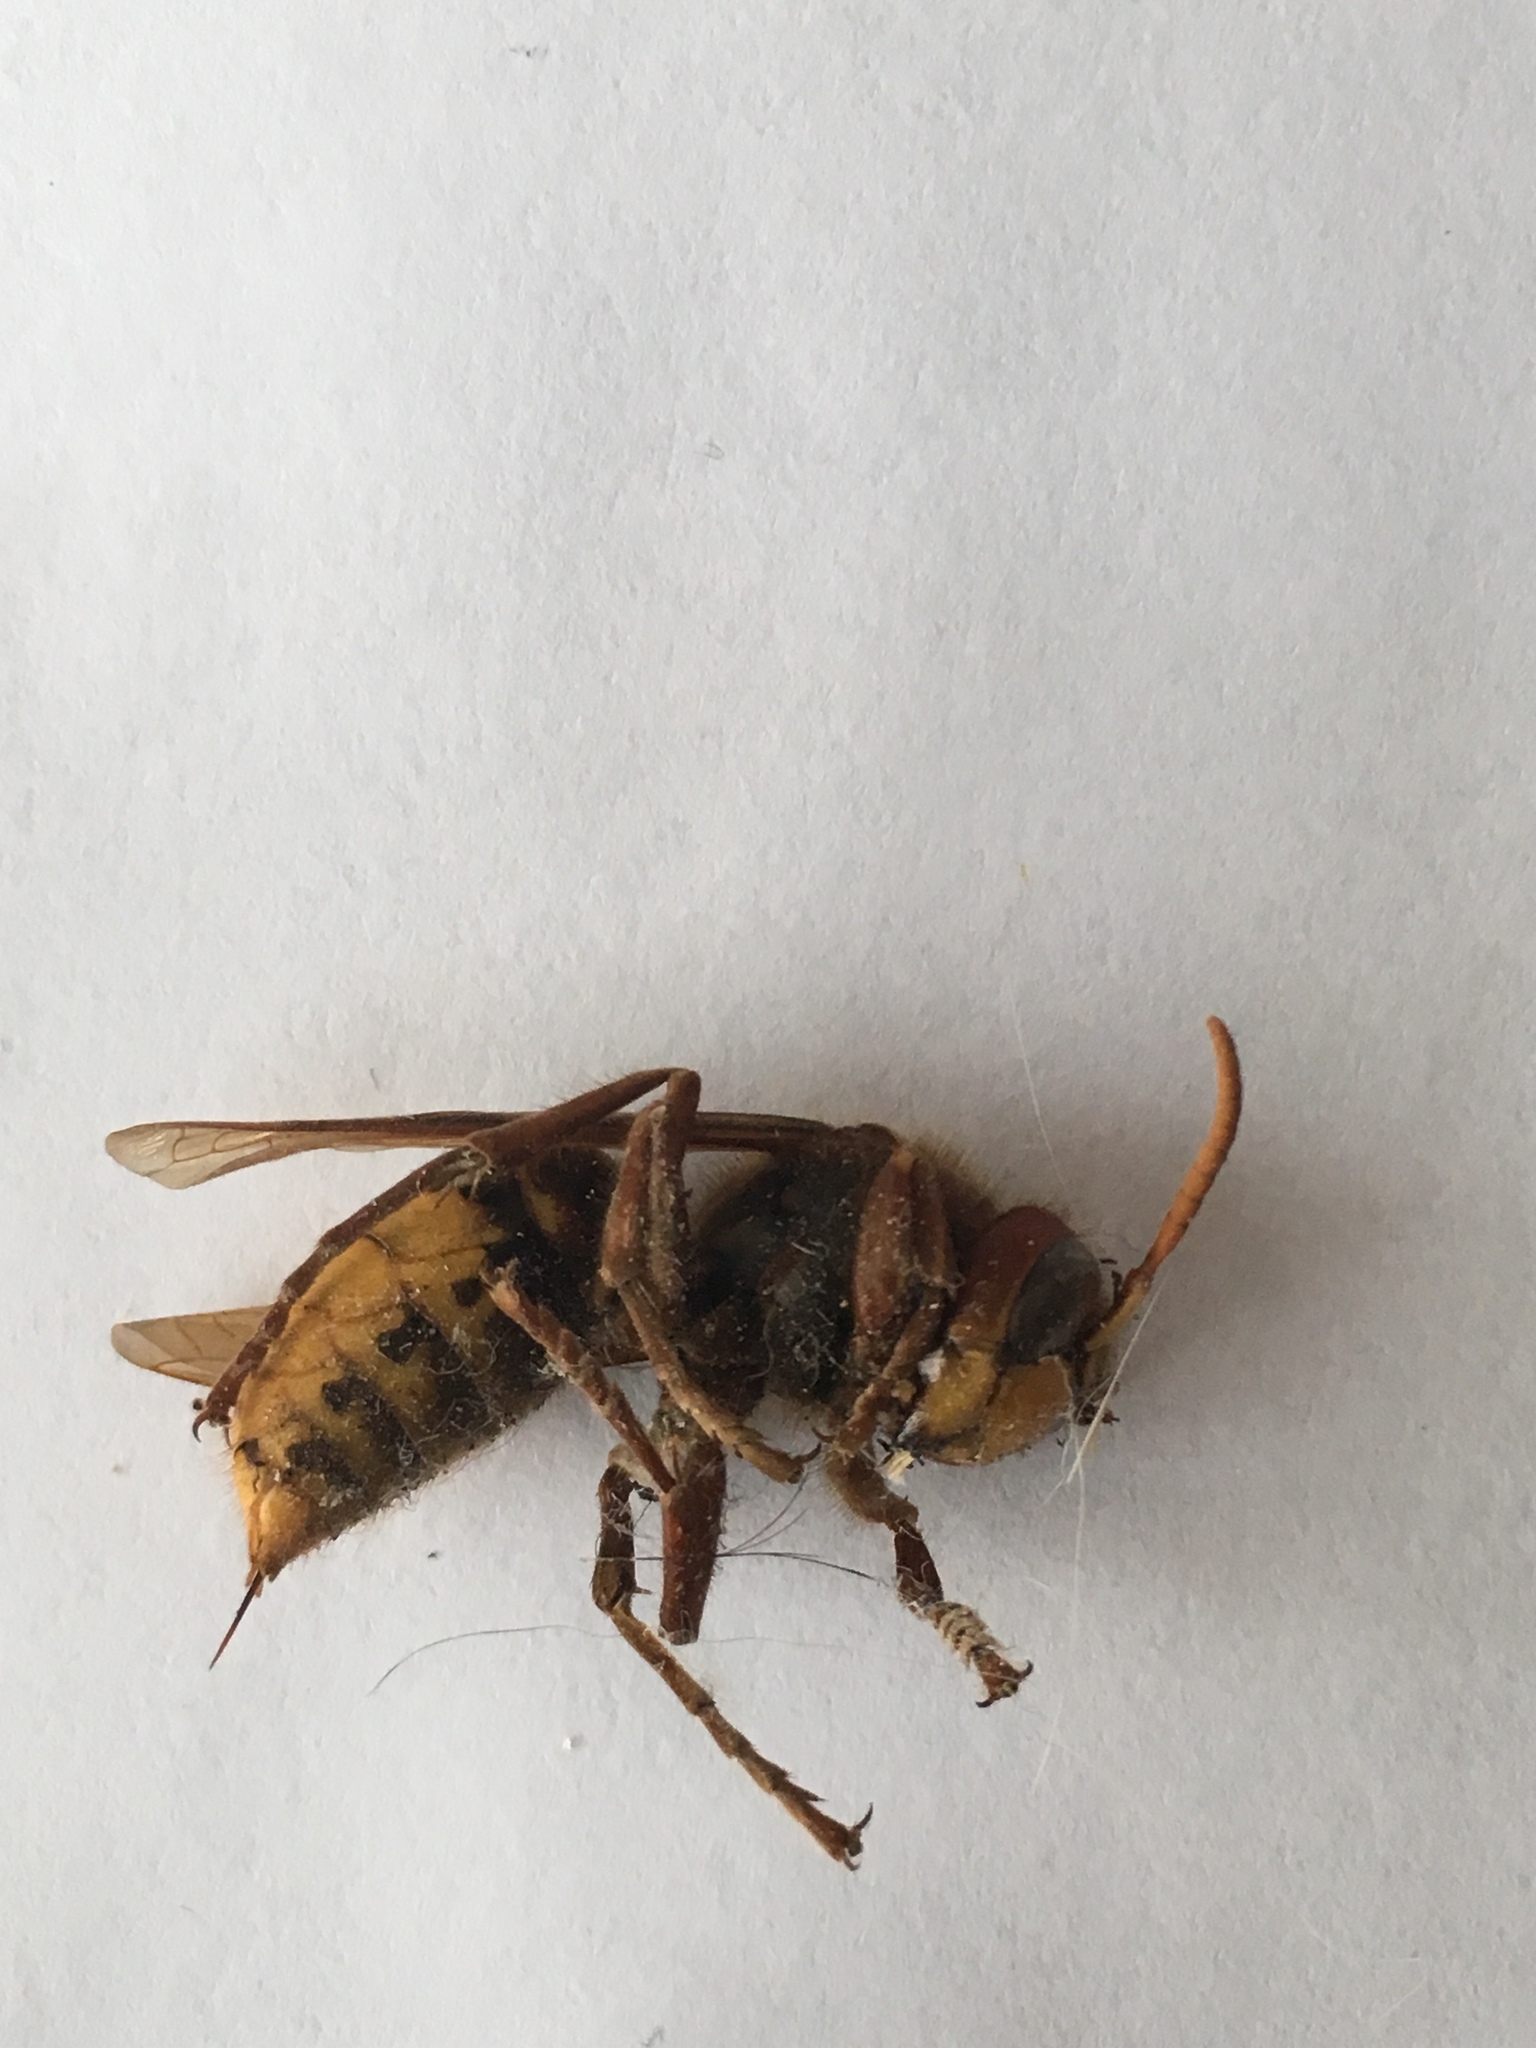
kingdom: Animalia
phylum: Arthropoda
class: Insecta
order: Hymenoptera
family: Vespidae
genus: Vespa
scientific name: Vespa crabro
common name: Hornet
